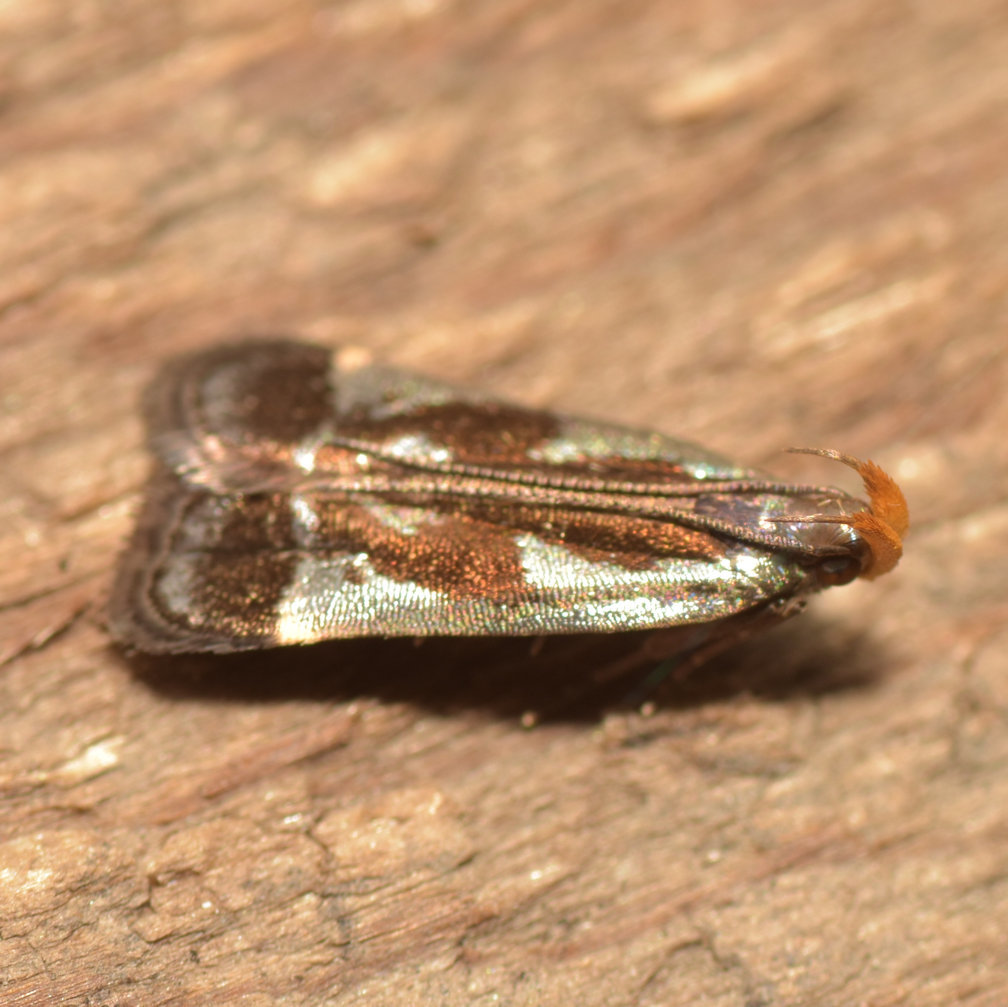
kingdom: Animalia
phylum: Arthropoda
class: Insecta
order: Lepidoptera
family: Gelechiidae
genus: Dichomeris
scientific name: Dichomeris ochripalpella
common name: Shining dichomeris moth
